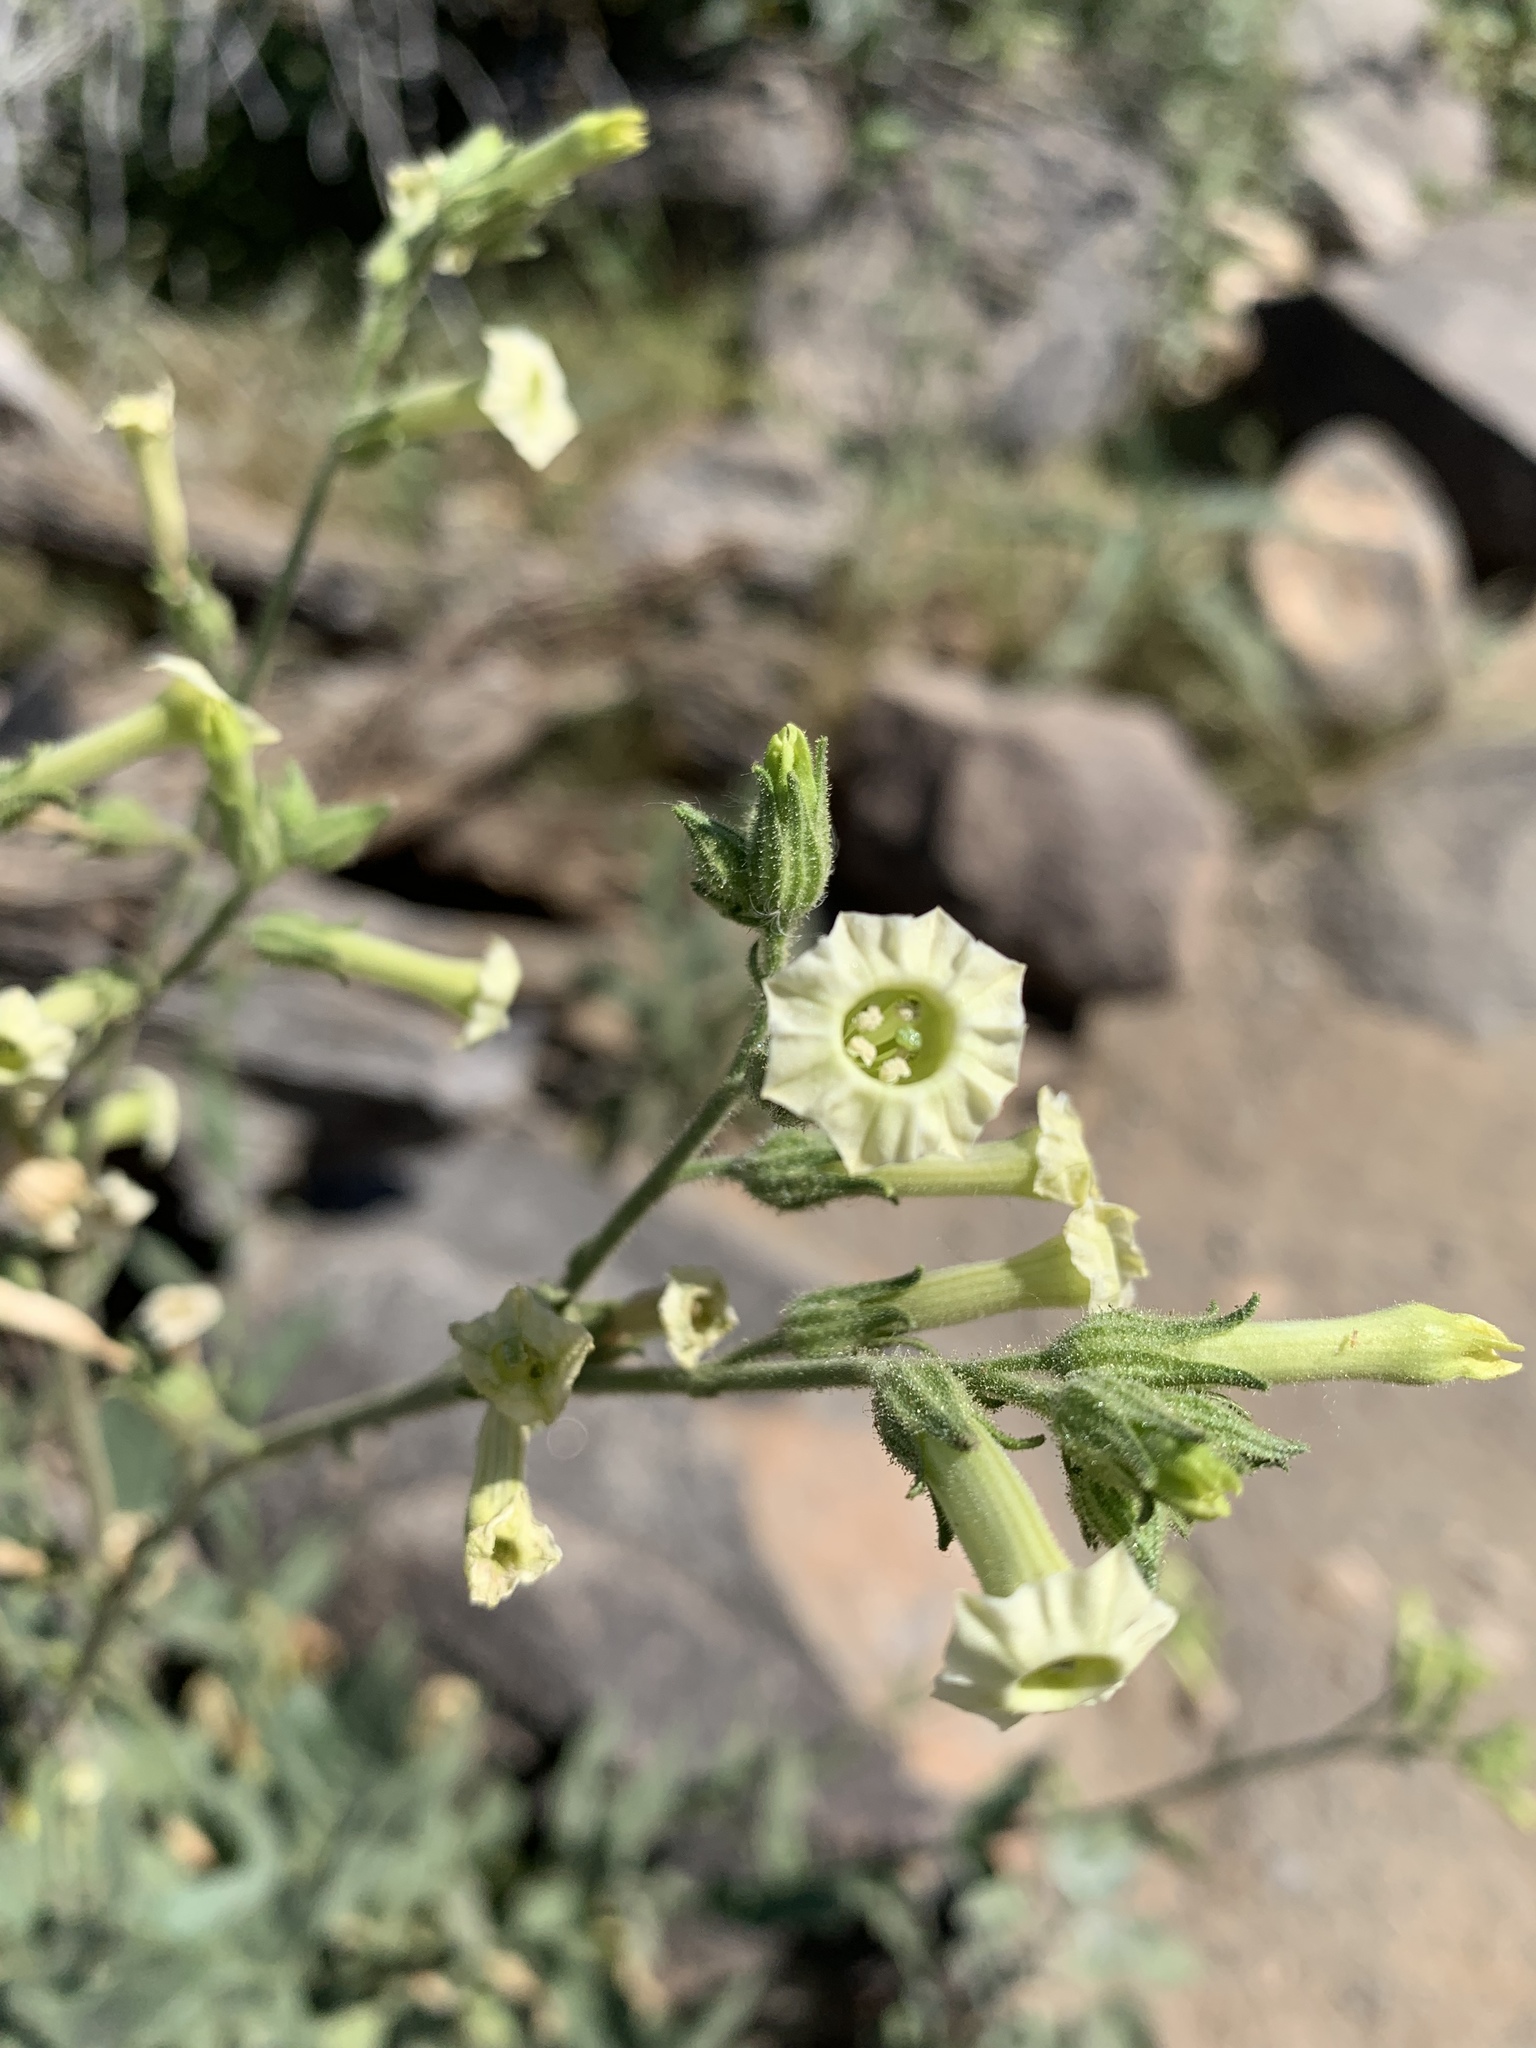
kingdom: Plantae
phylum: Tracheophyta
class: Magnoliopsida
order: Solanales
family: Solanaceae
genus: Nicotiana
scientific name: Nicotiana obtusifolia
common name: Desert tobacco
